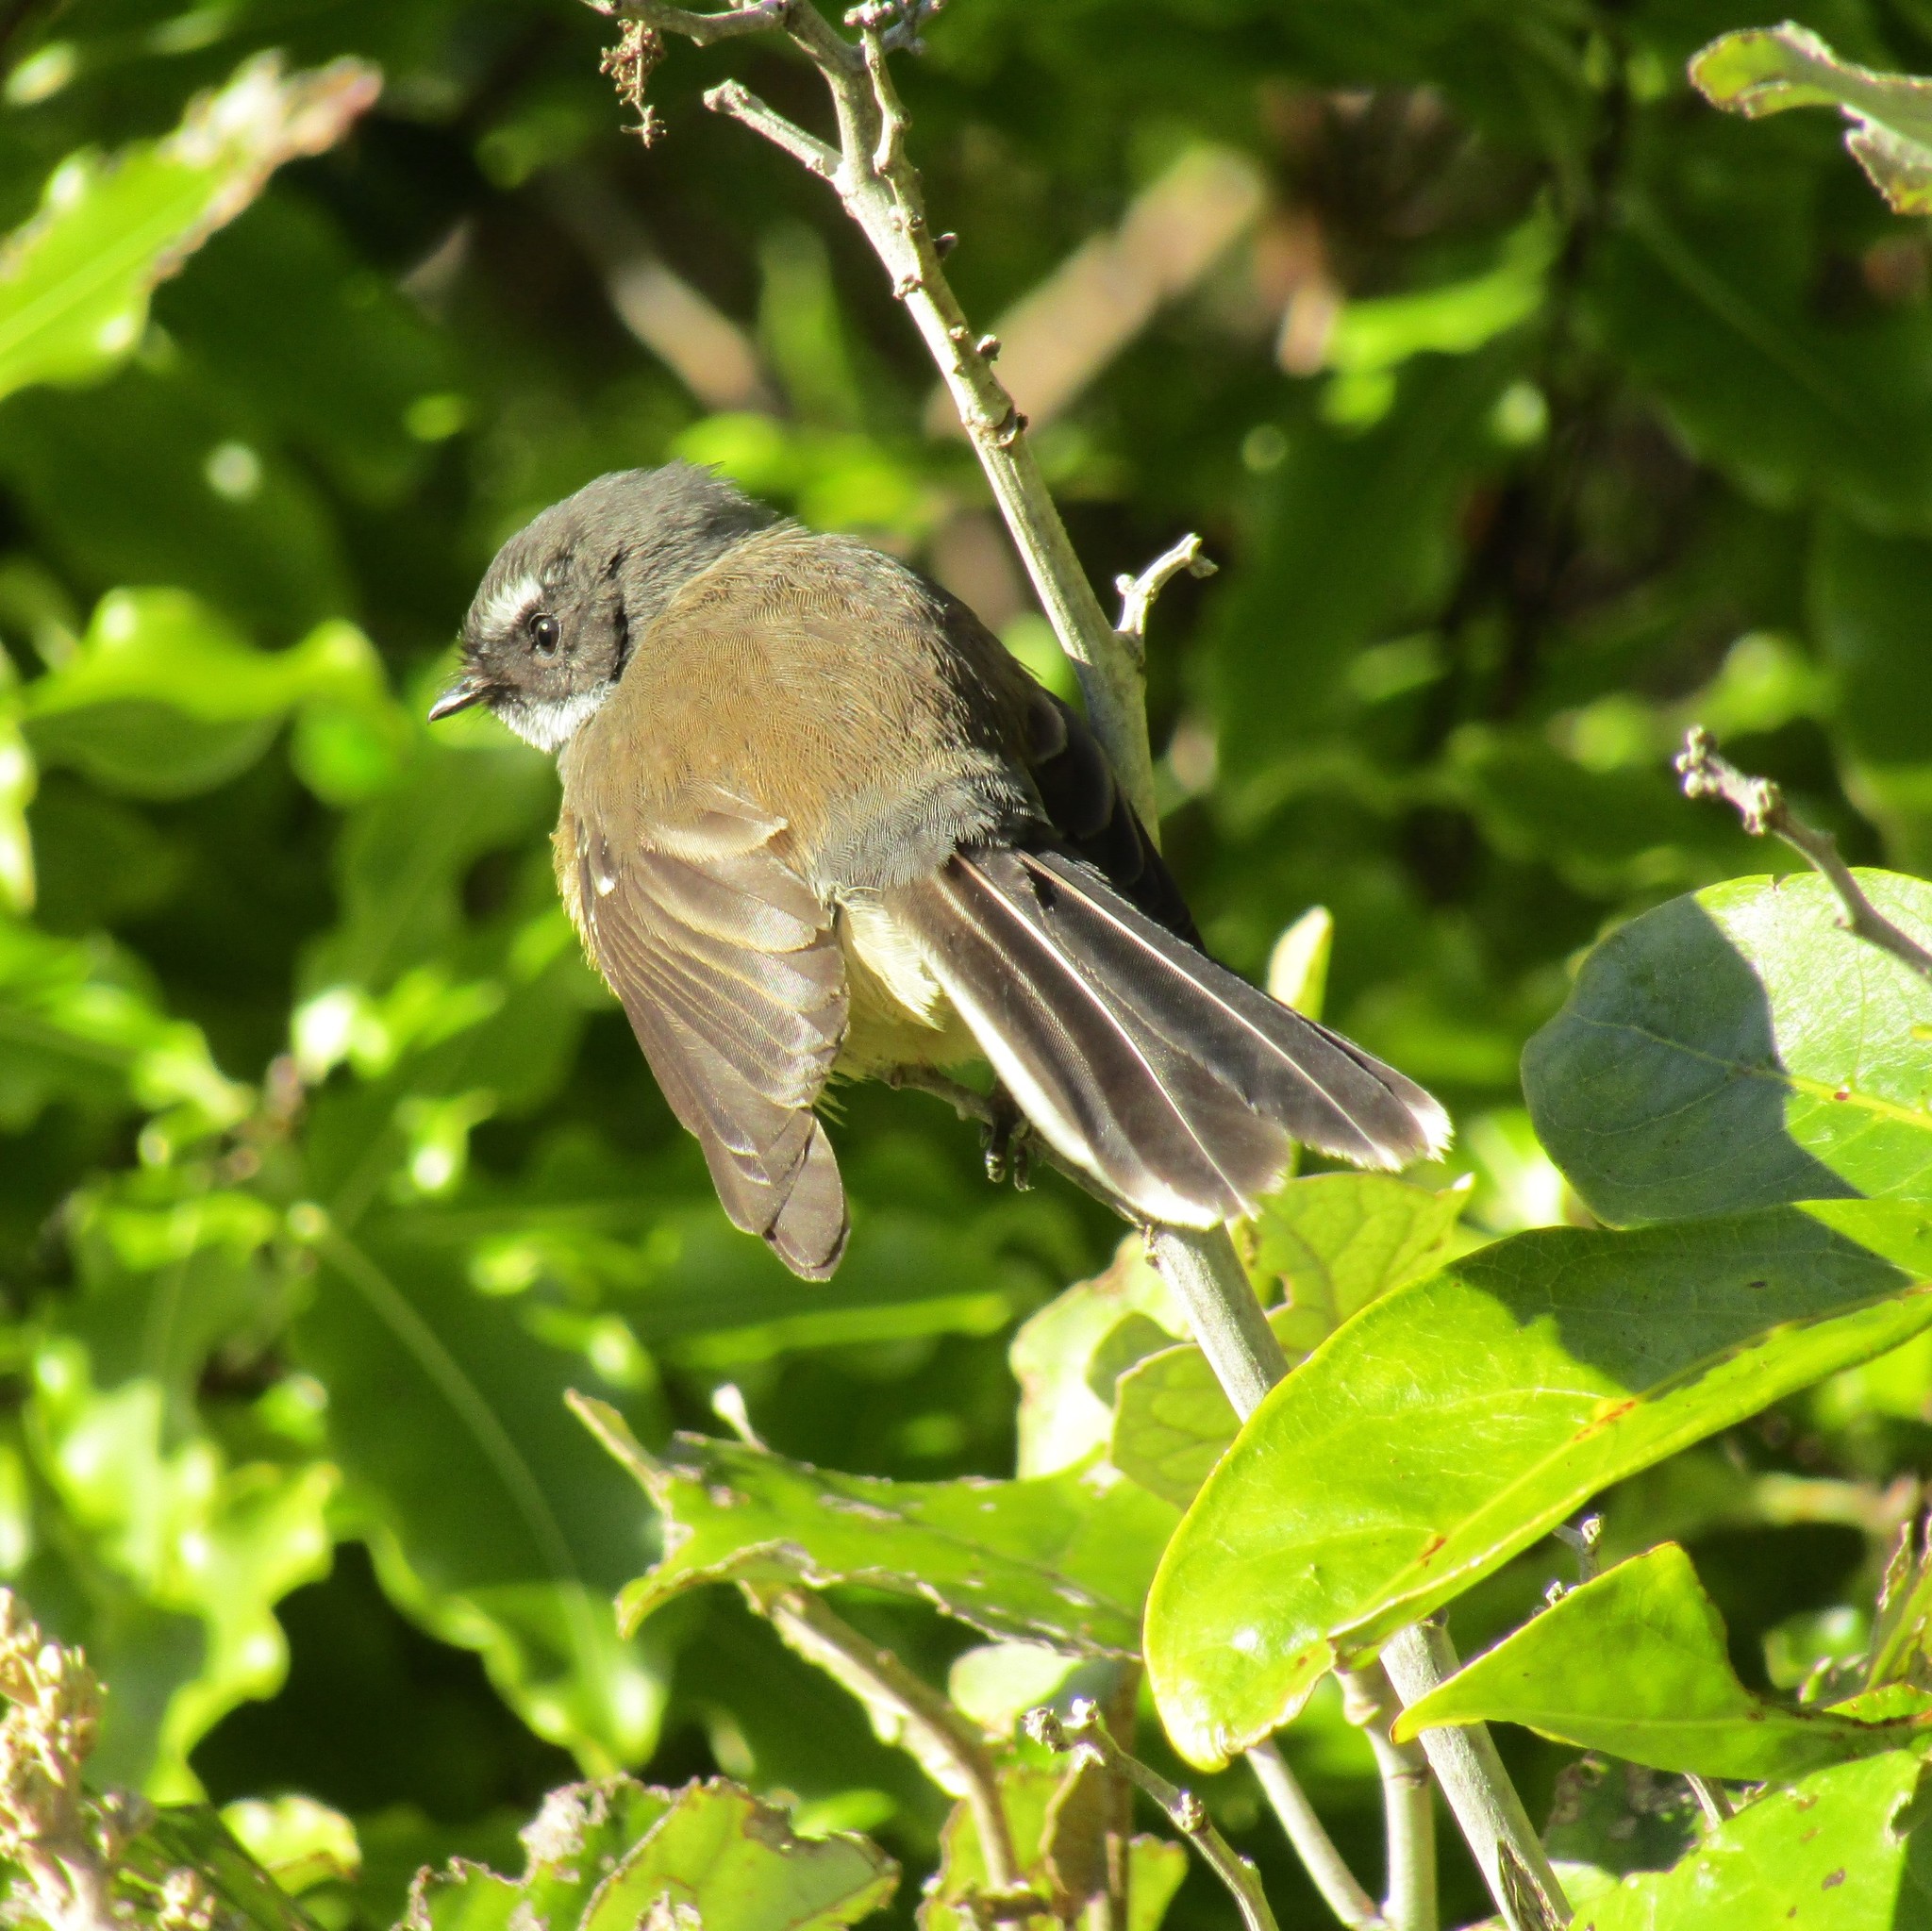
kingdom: Animalia
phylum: Chordata
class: Aves
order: Passeriformes
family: Rhipiduridae
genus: Rhipidura
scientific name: Rhipidura fuliginosa
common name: New zealand fantail
